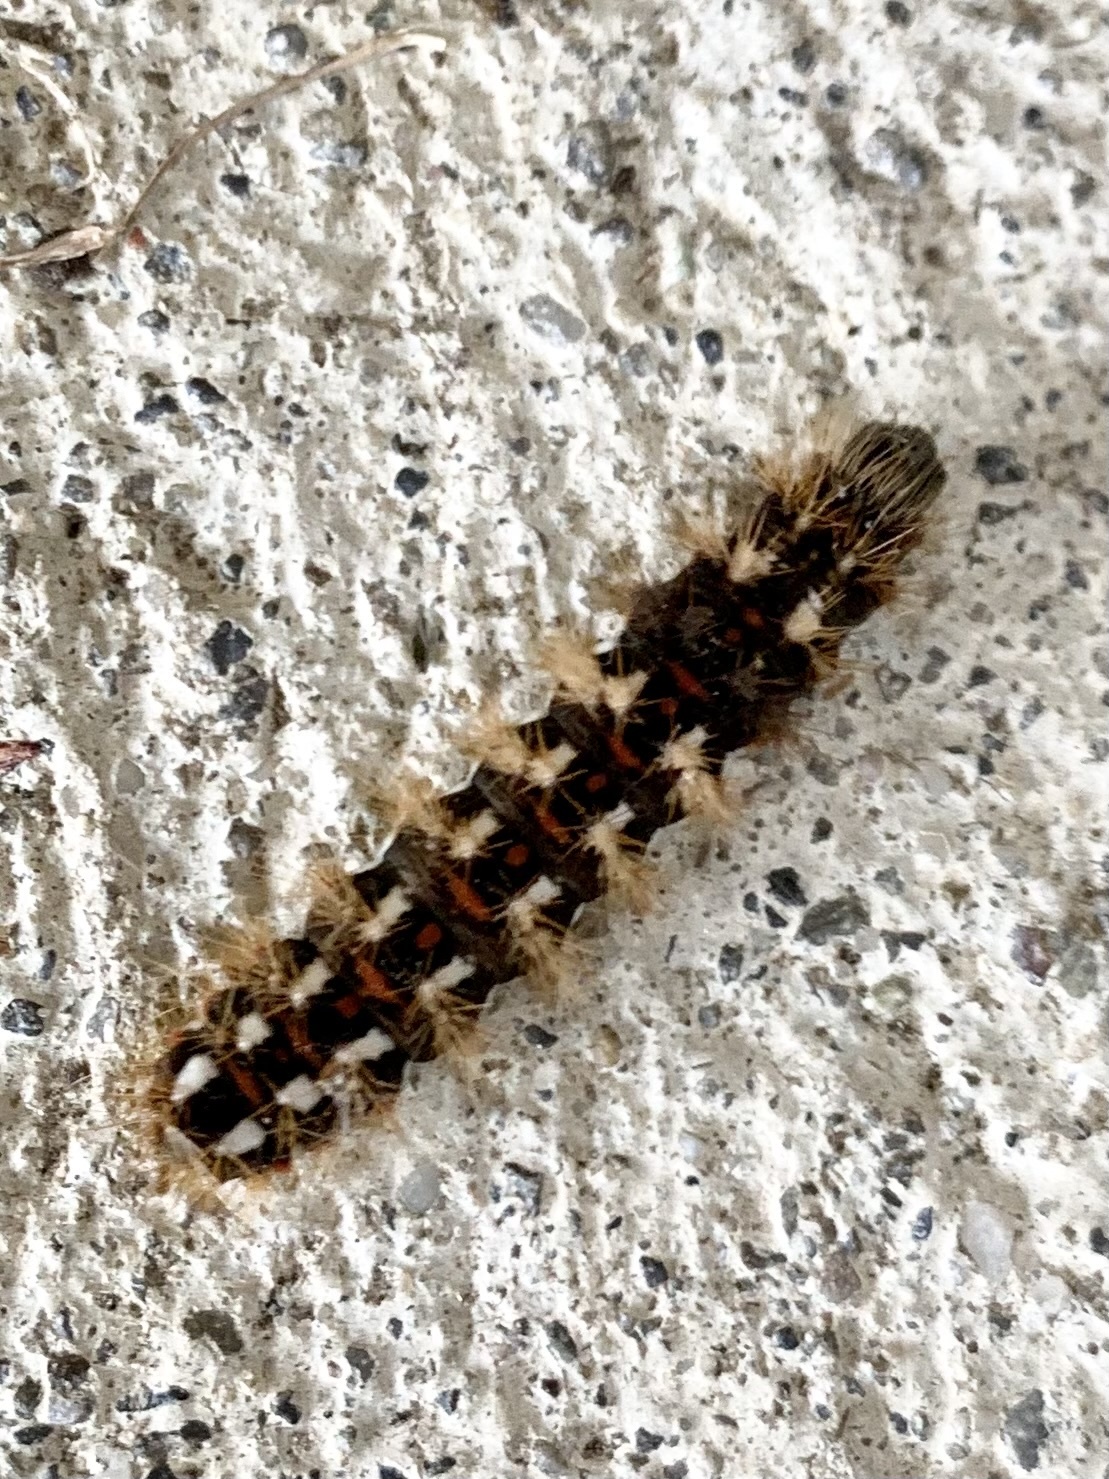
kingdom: Animalia
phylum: Arthropoda
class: Insecta
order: Lepidoptera
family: Noctuidae
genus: Acronicta
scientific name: Acronicta rumicis
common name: Knot grass
